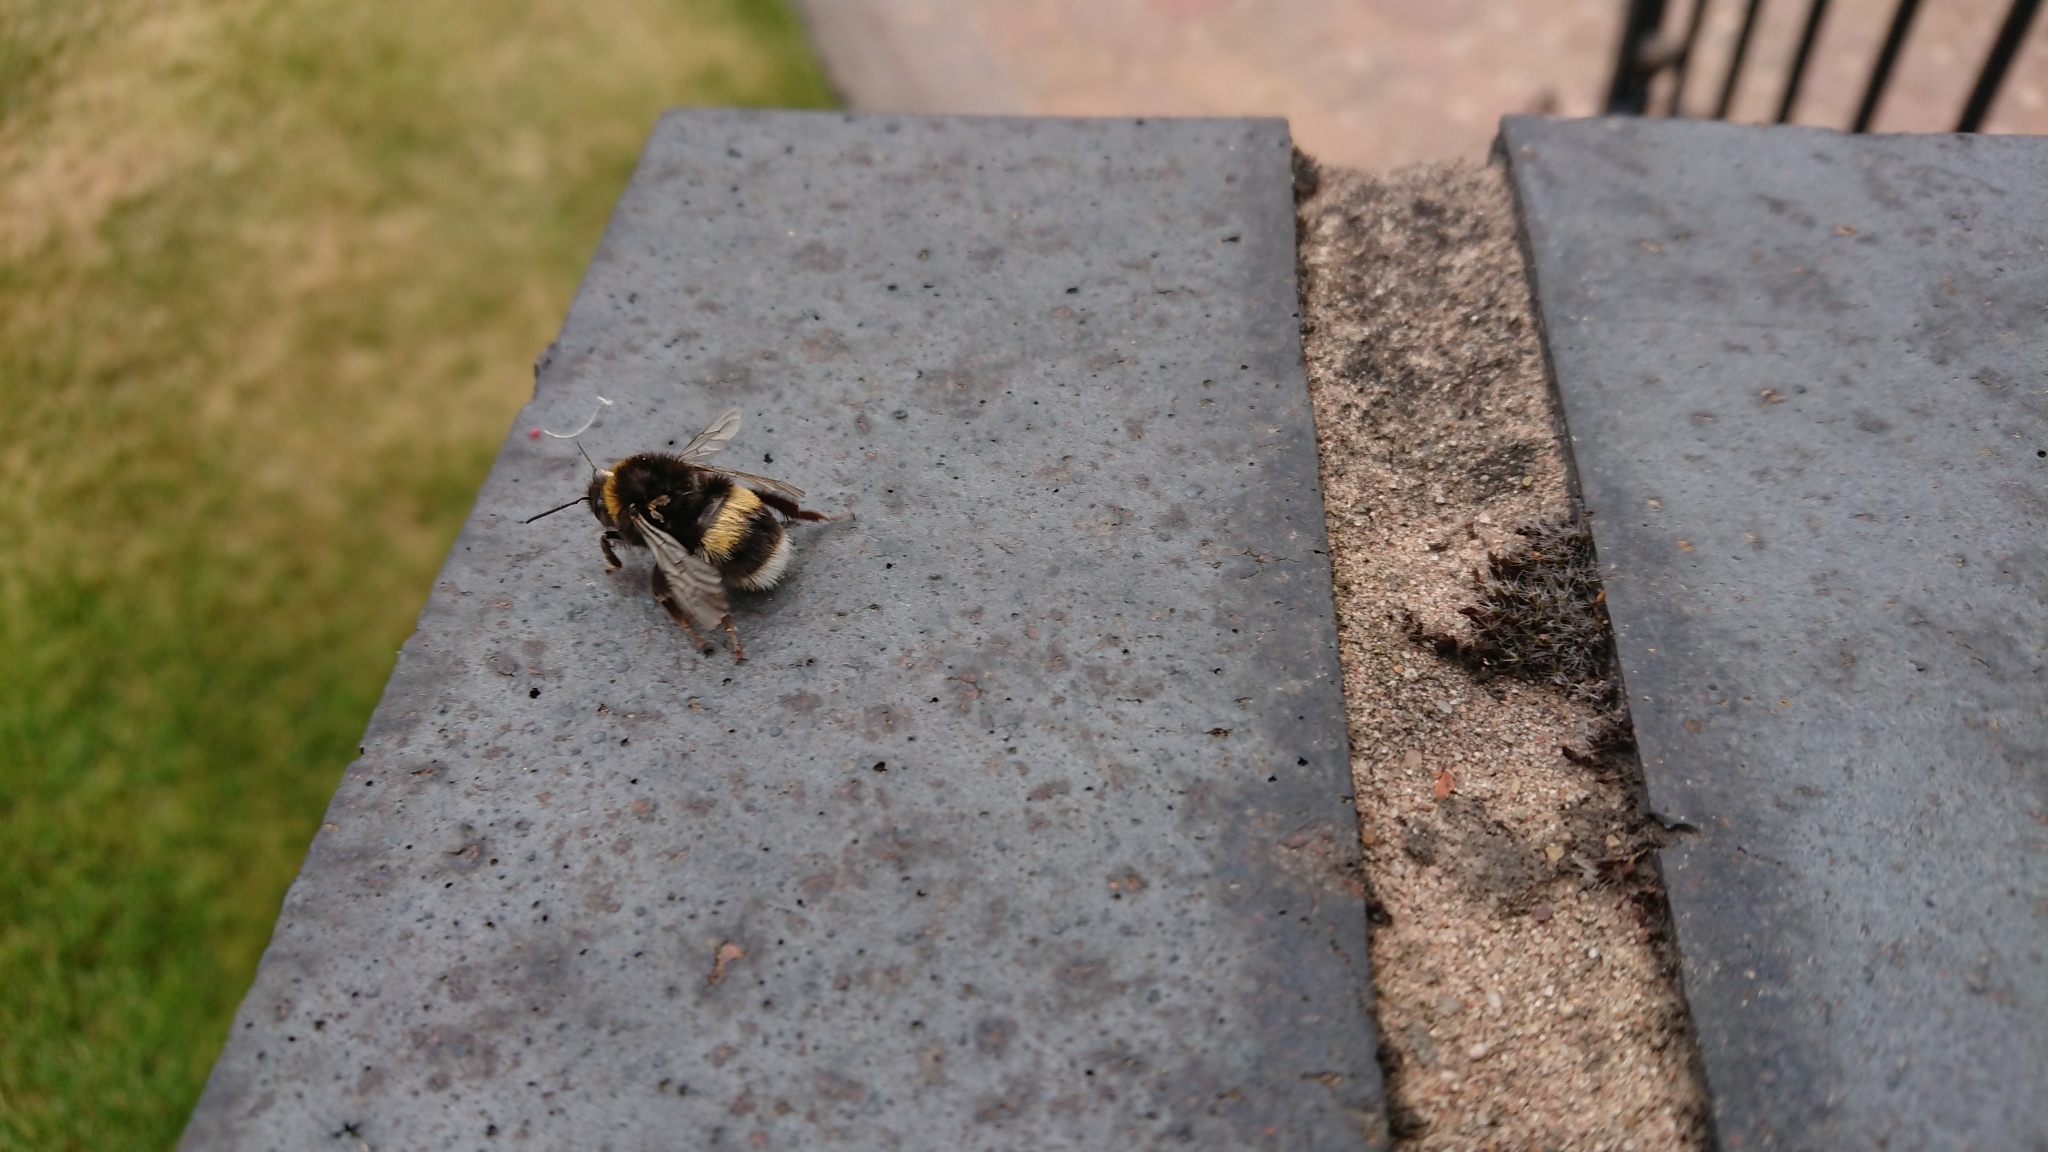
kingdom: Animalia
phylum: Arthropoda
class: Insecta
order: Hymenoptera
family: Apidae
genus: Bombus
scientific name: Bombus terrestris
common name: Buff-tailed bumblebee
